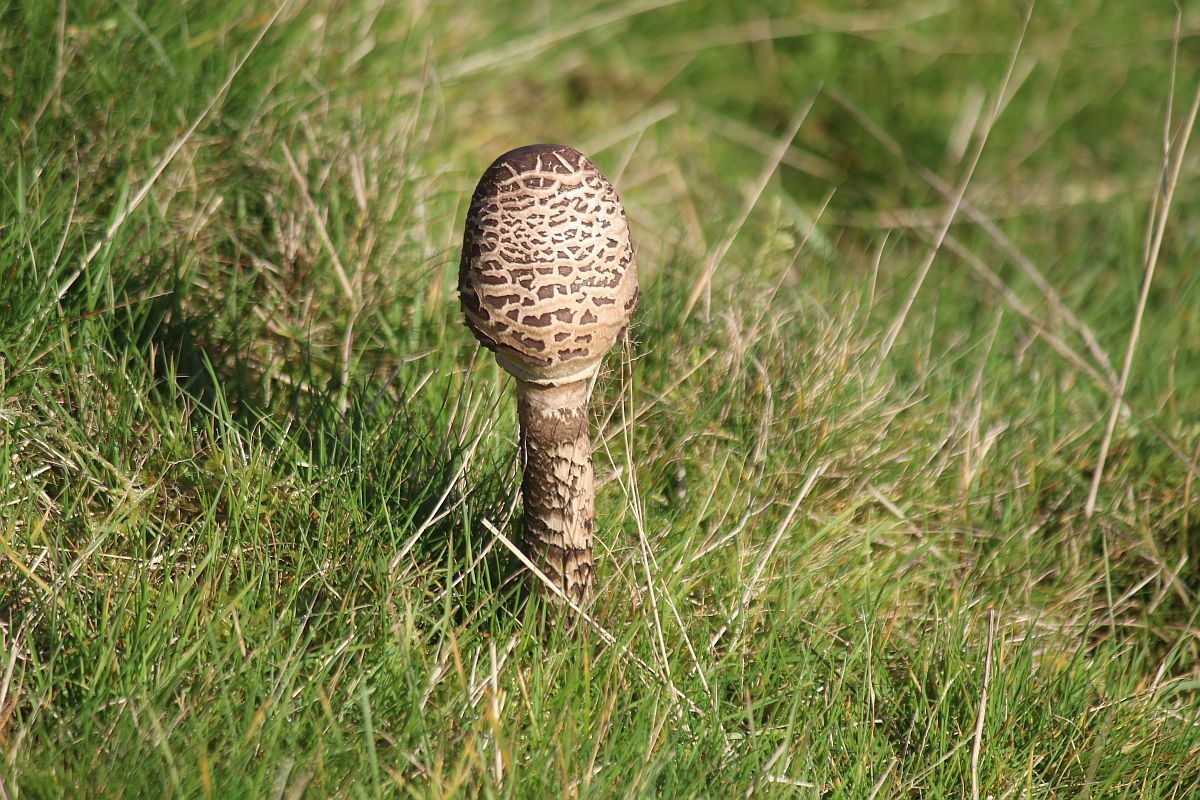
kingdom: Fungi
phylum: Basidiomycota
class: Agaricomycetes
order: Agaricales
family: Agaricaceae
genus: Macrolepiota
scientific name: Macrolepiota procera
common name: Parasol
